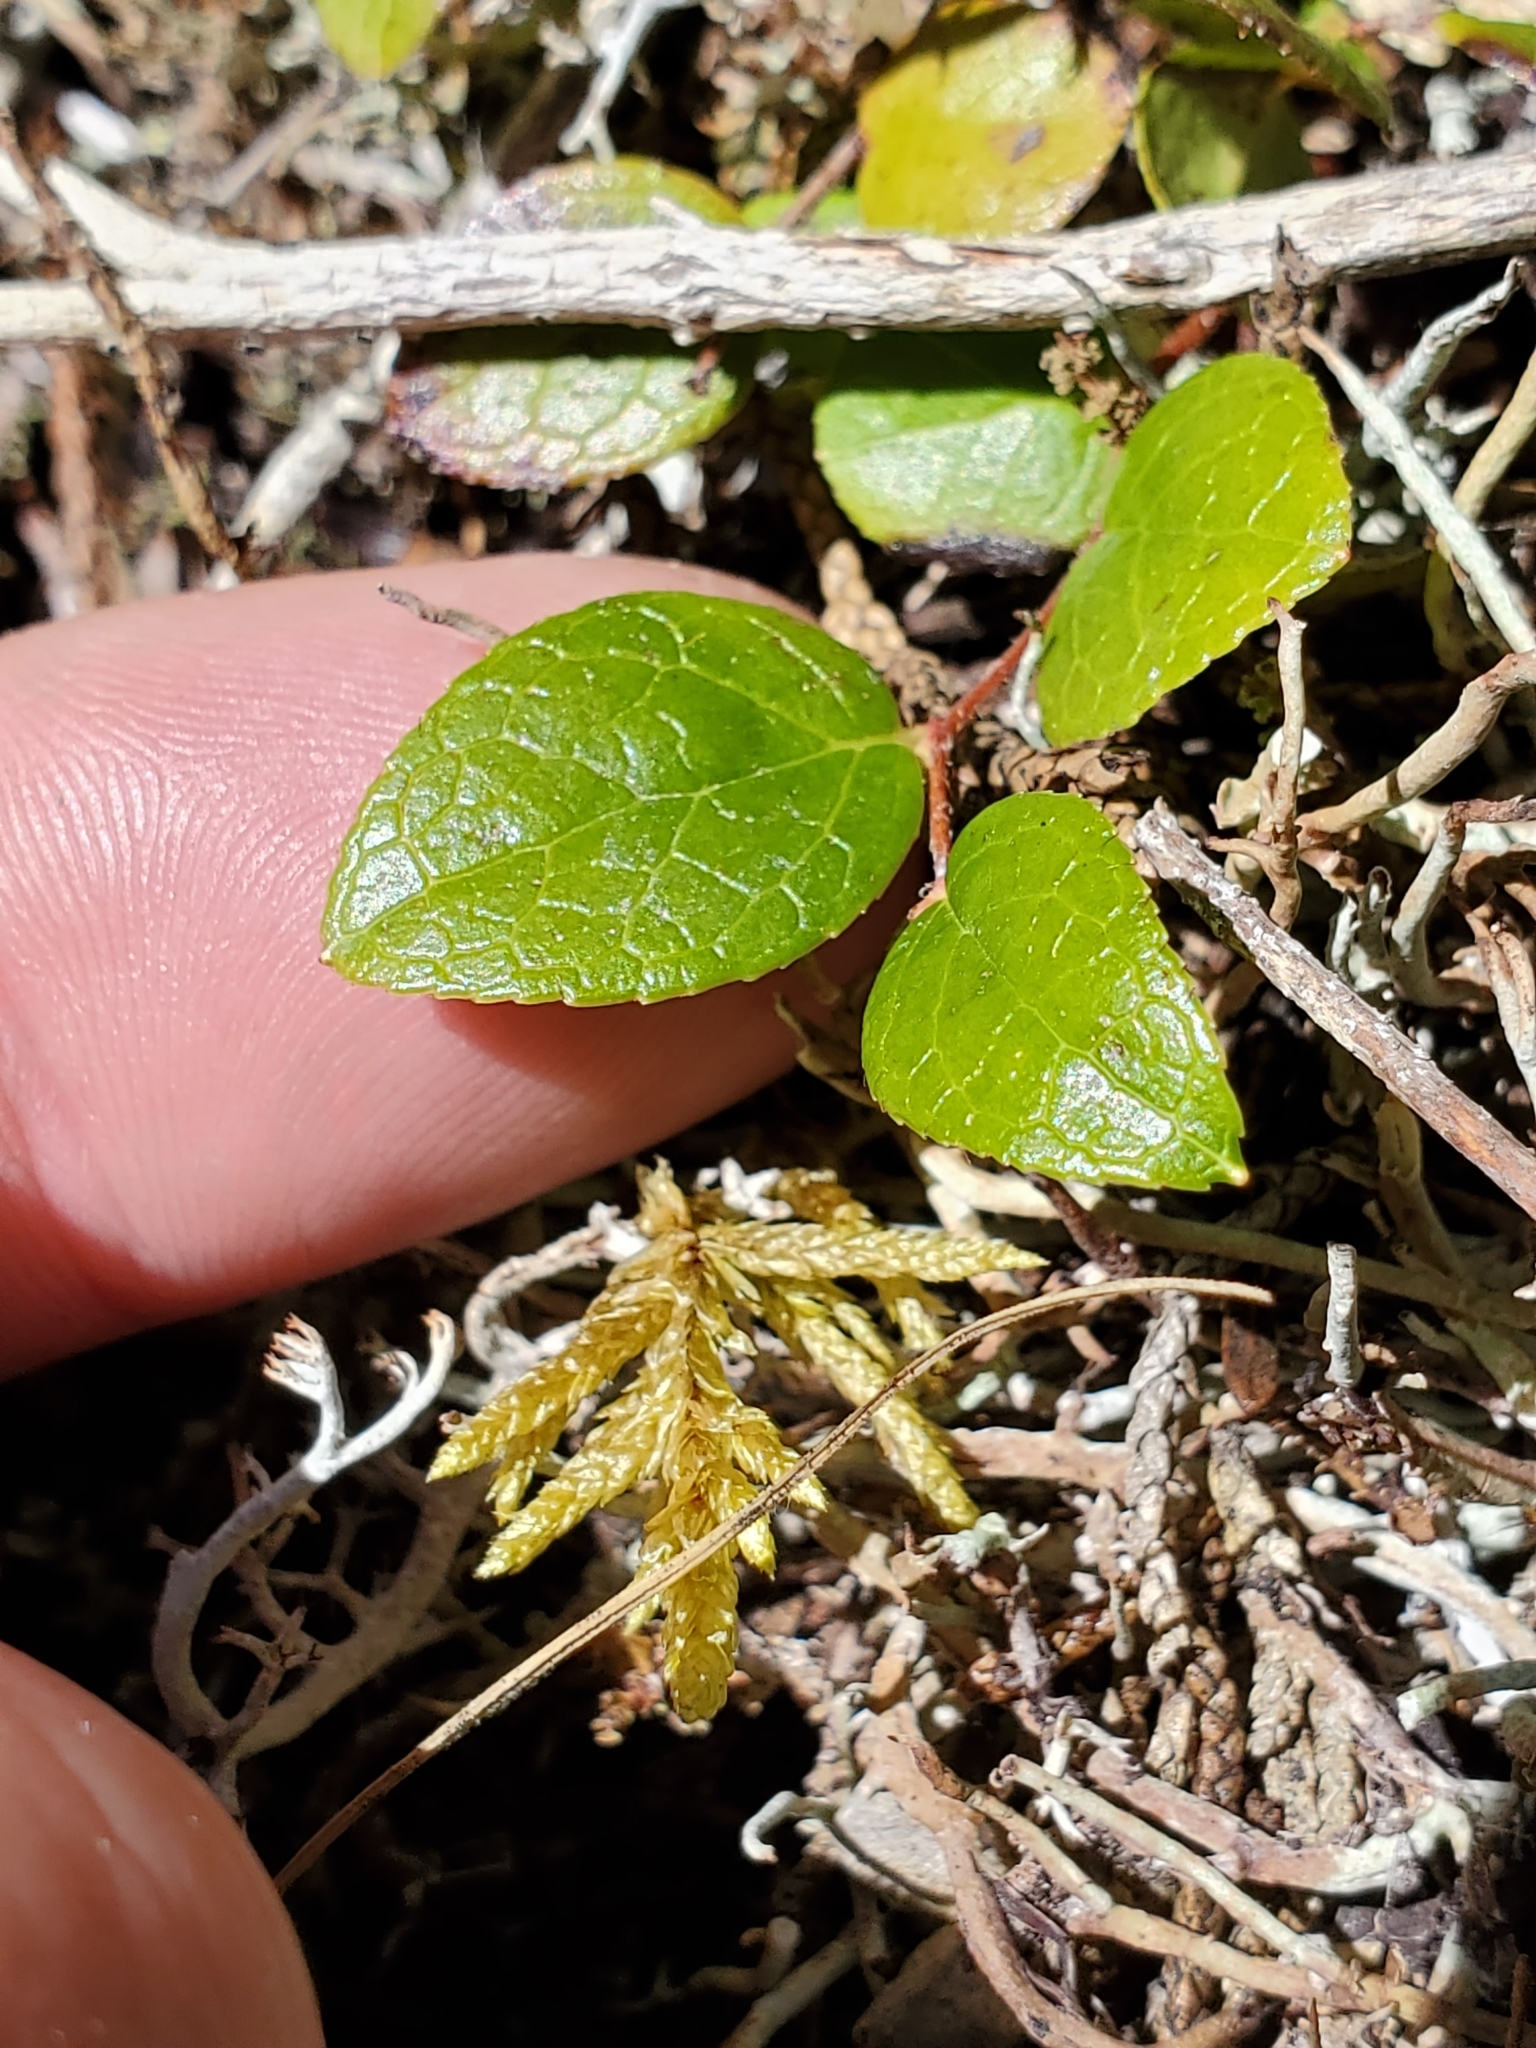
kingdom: Plantae
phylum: Tracheophyta
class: Magnoliopsida
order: Ericales
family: Ericaceae
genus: Gaultheria
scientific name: Gaultheria ovatifolia
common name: Oregon wintergreen
